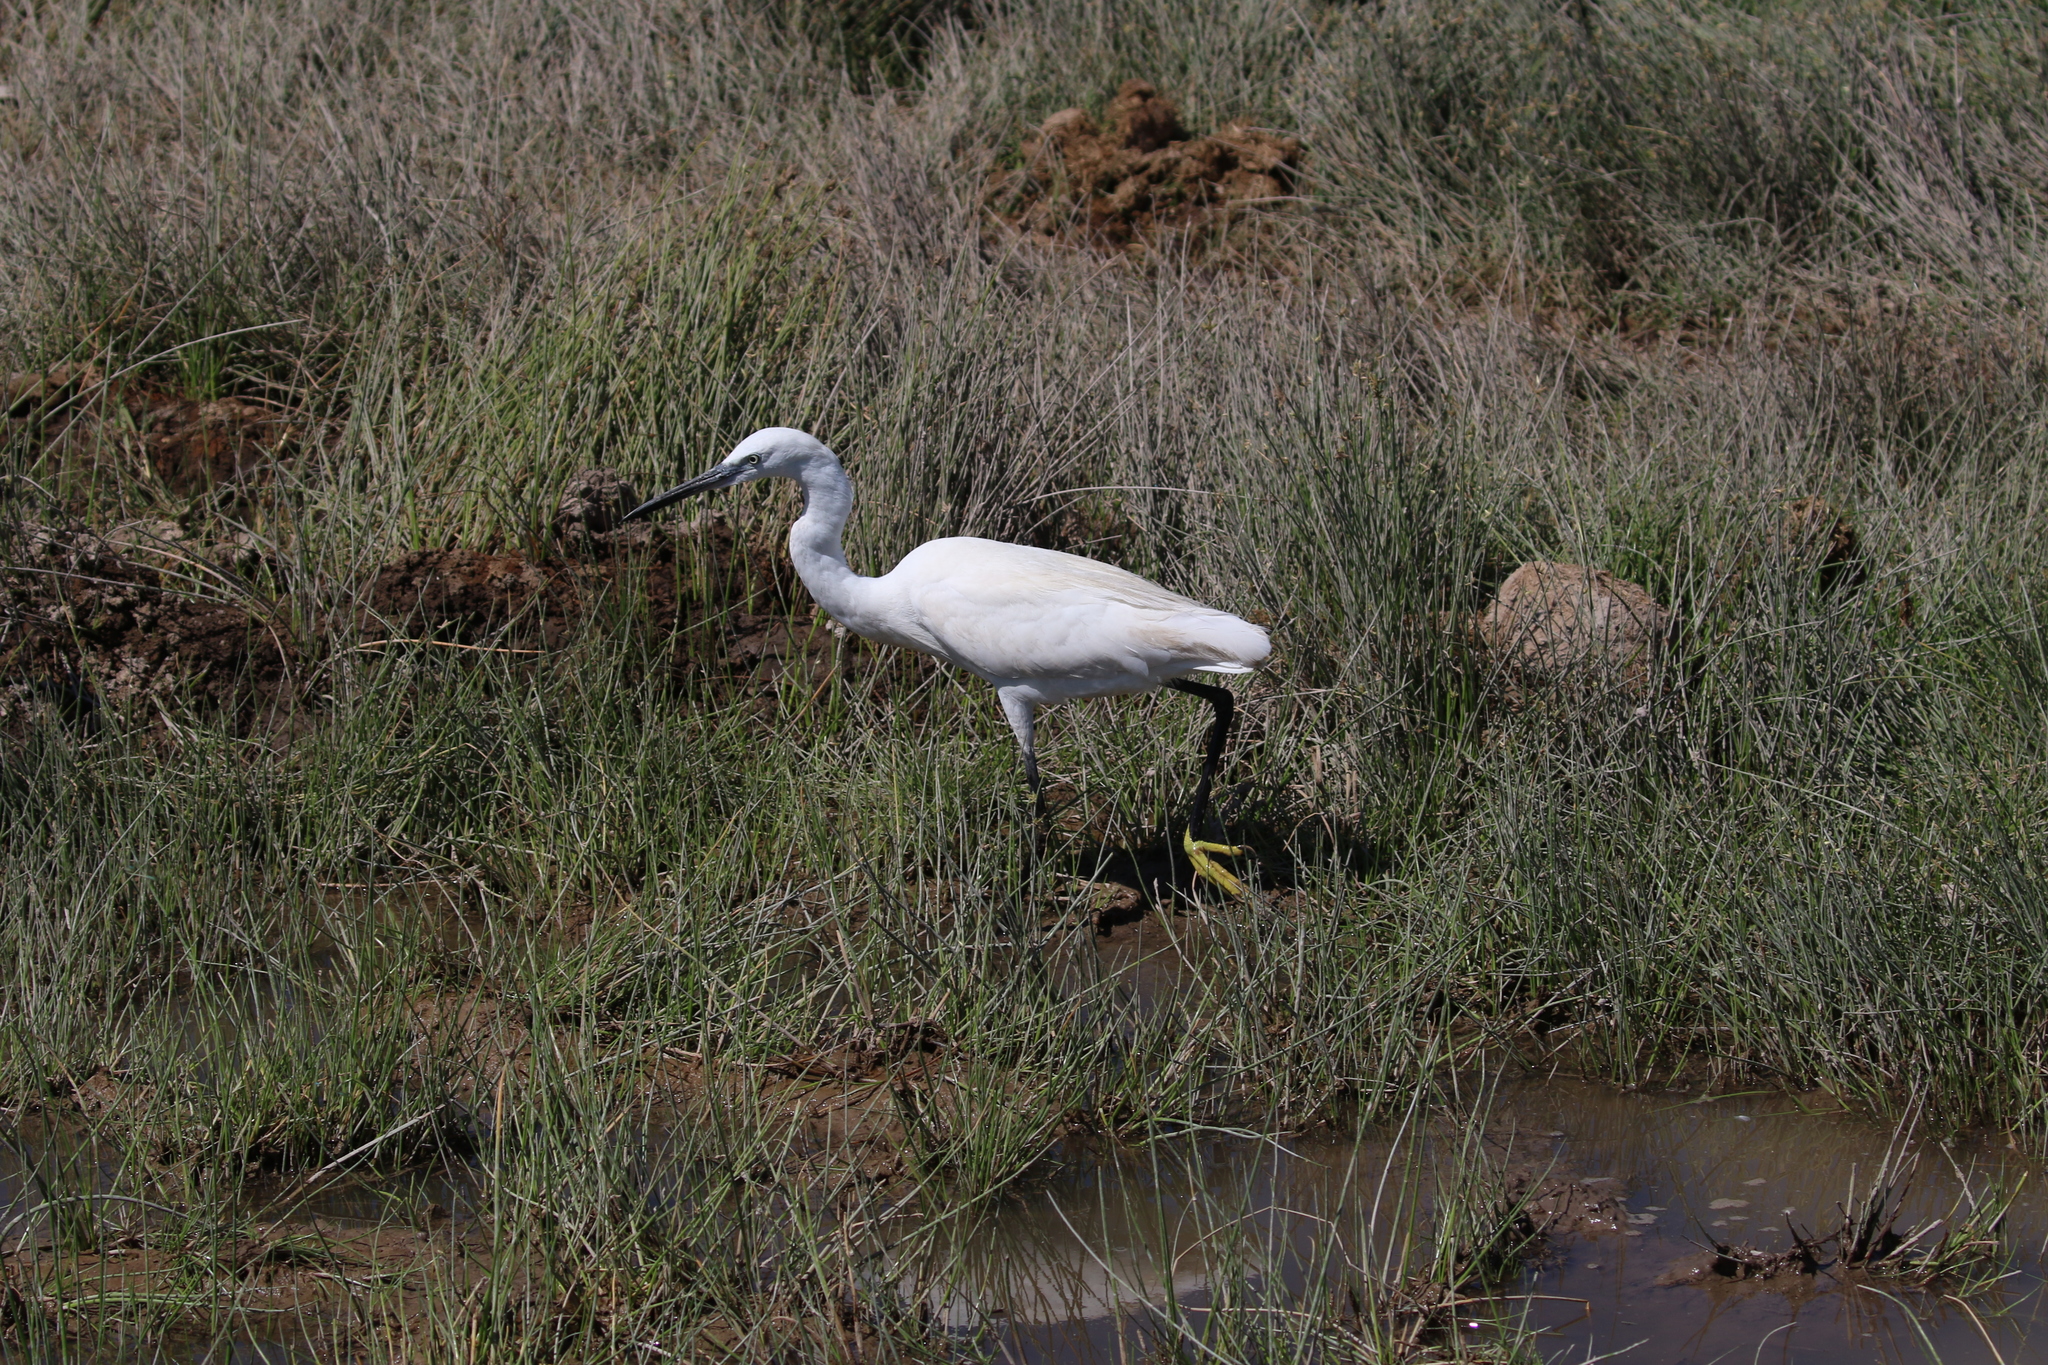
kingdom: Animalia
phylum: Chordata
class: Aves
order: Pelecaniformes
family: Ardeidae
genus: Egretta
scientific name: Egretta garzetta
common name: Little egret
